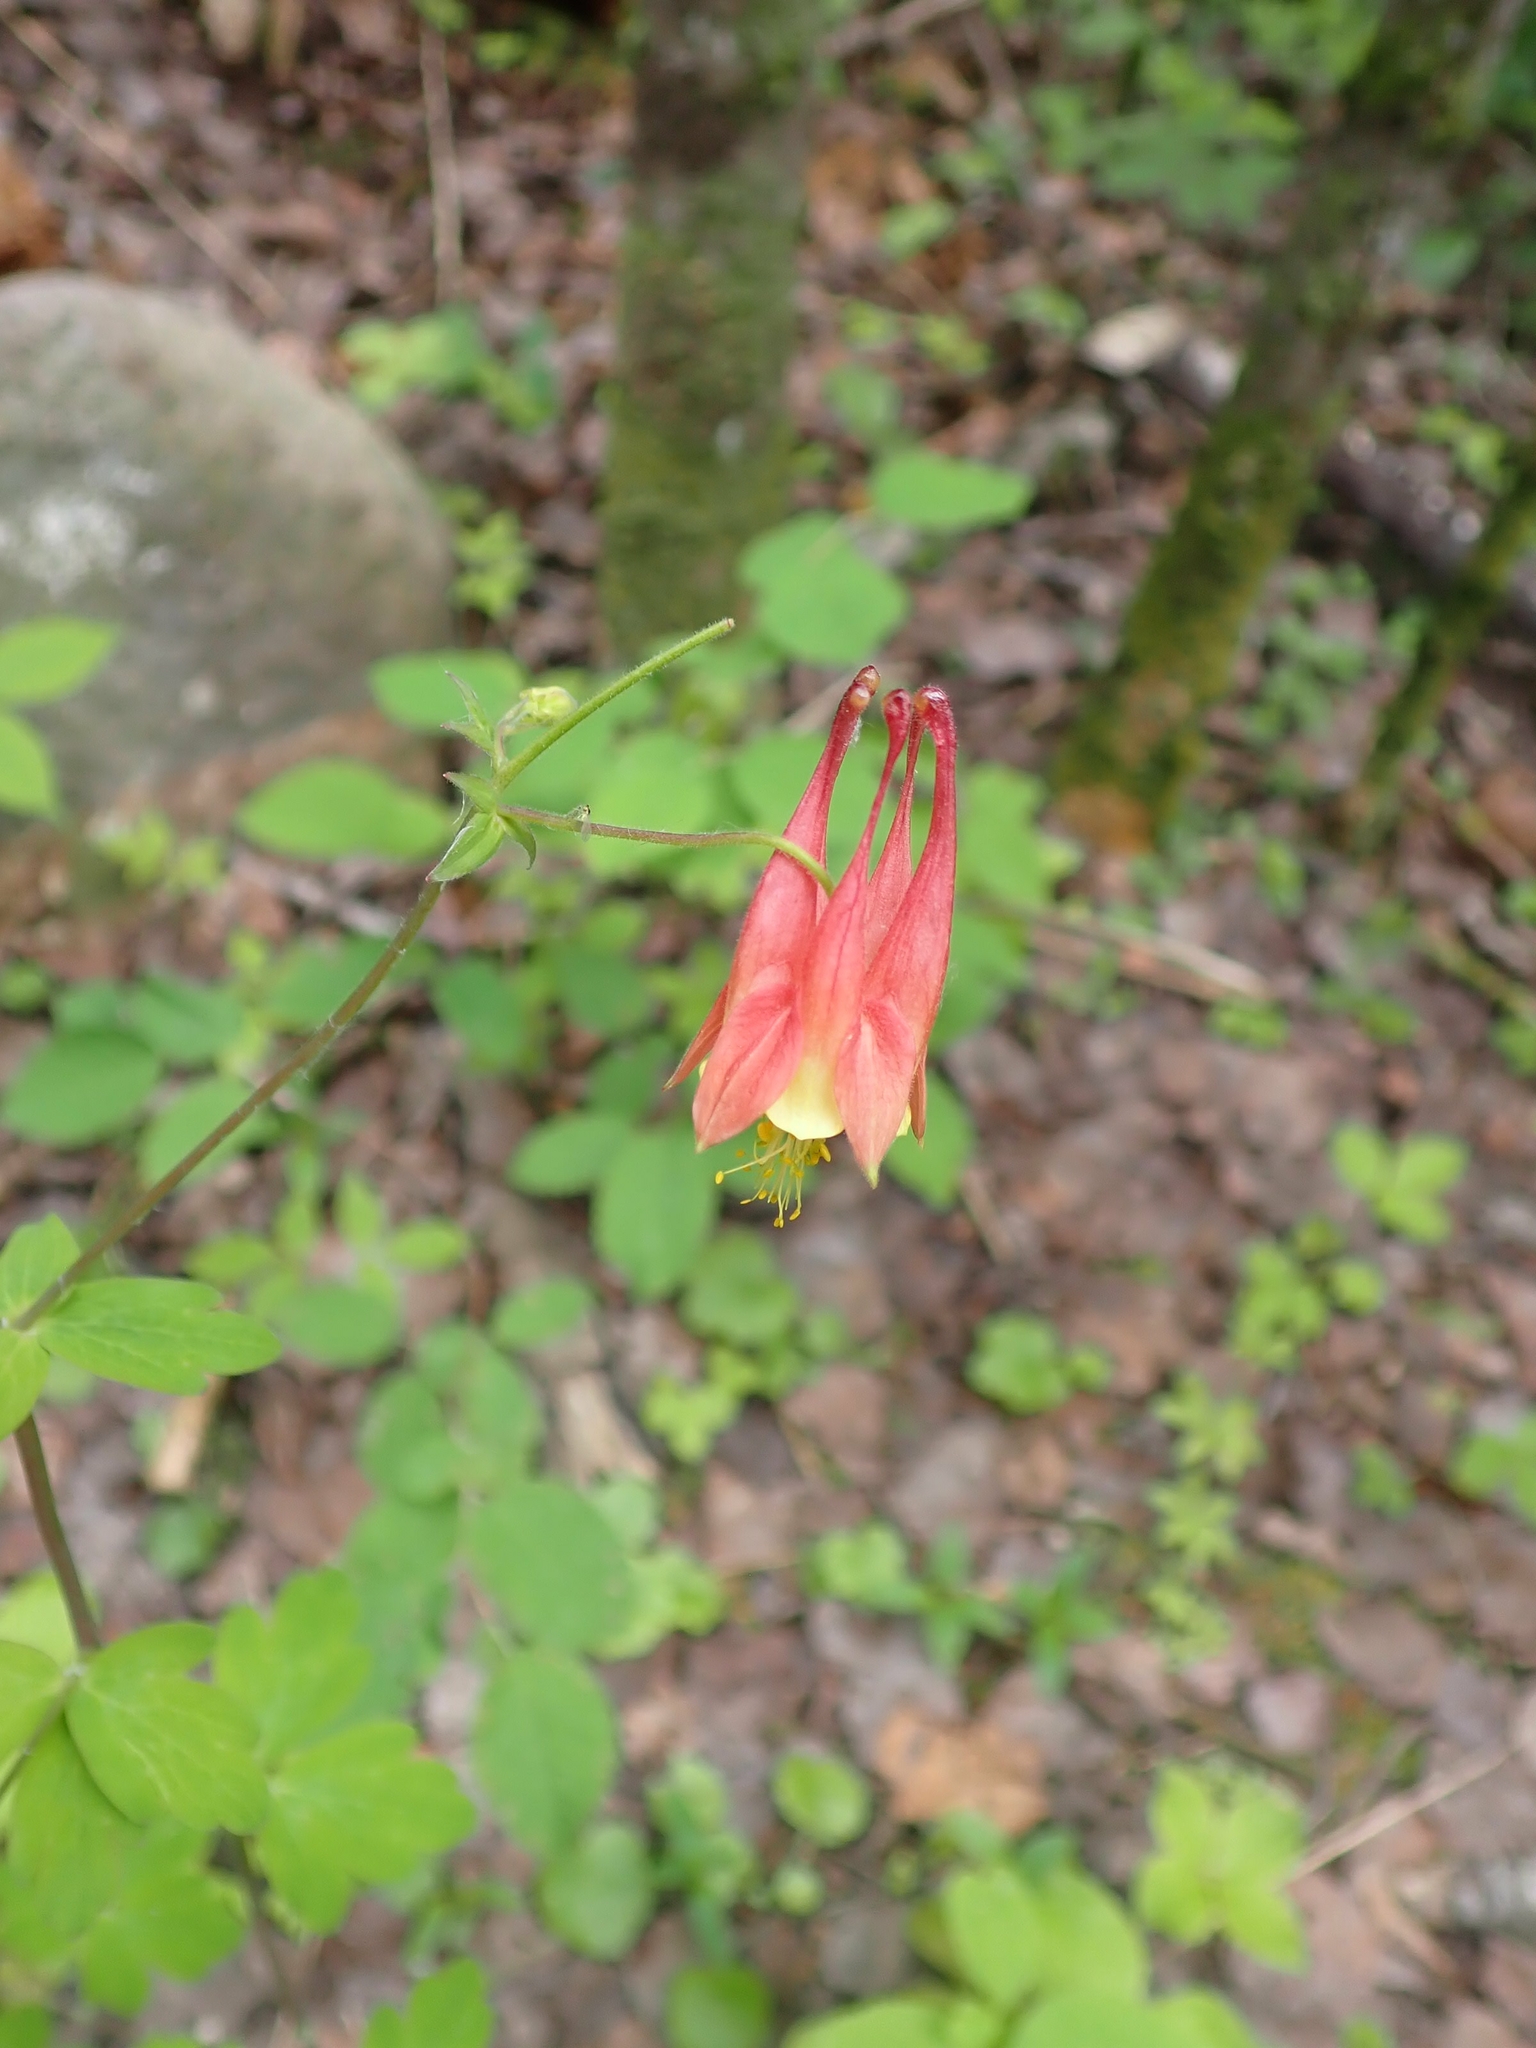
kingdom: Plantae
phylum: Tracheophyta
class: Magnoliopsida
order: Ranunculales
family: Ranunculaceae
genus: Aquilegia
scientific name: Aquilegia canadensis
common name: American columbine
